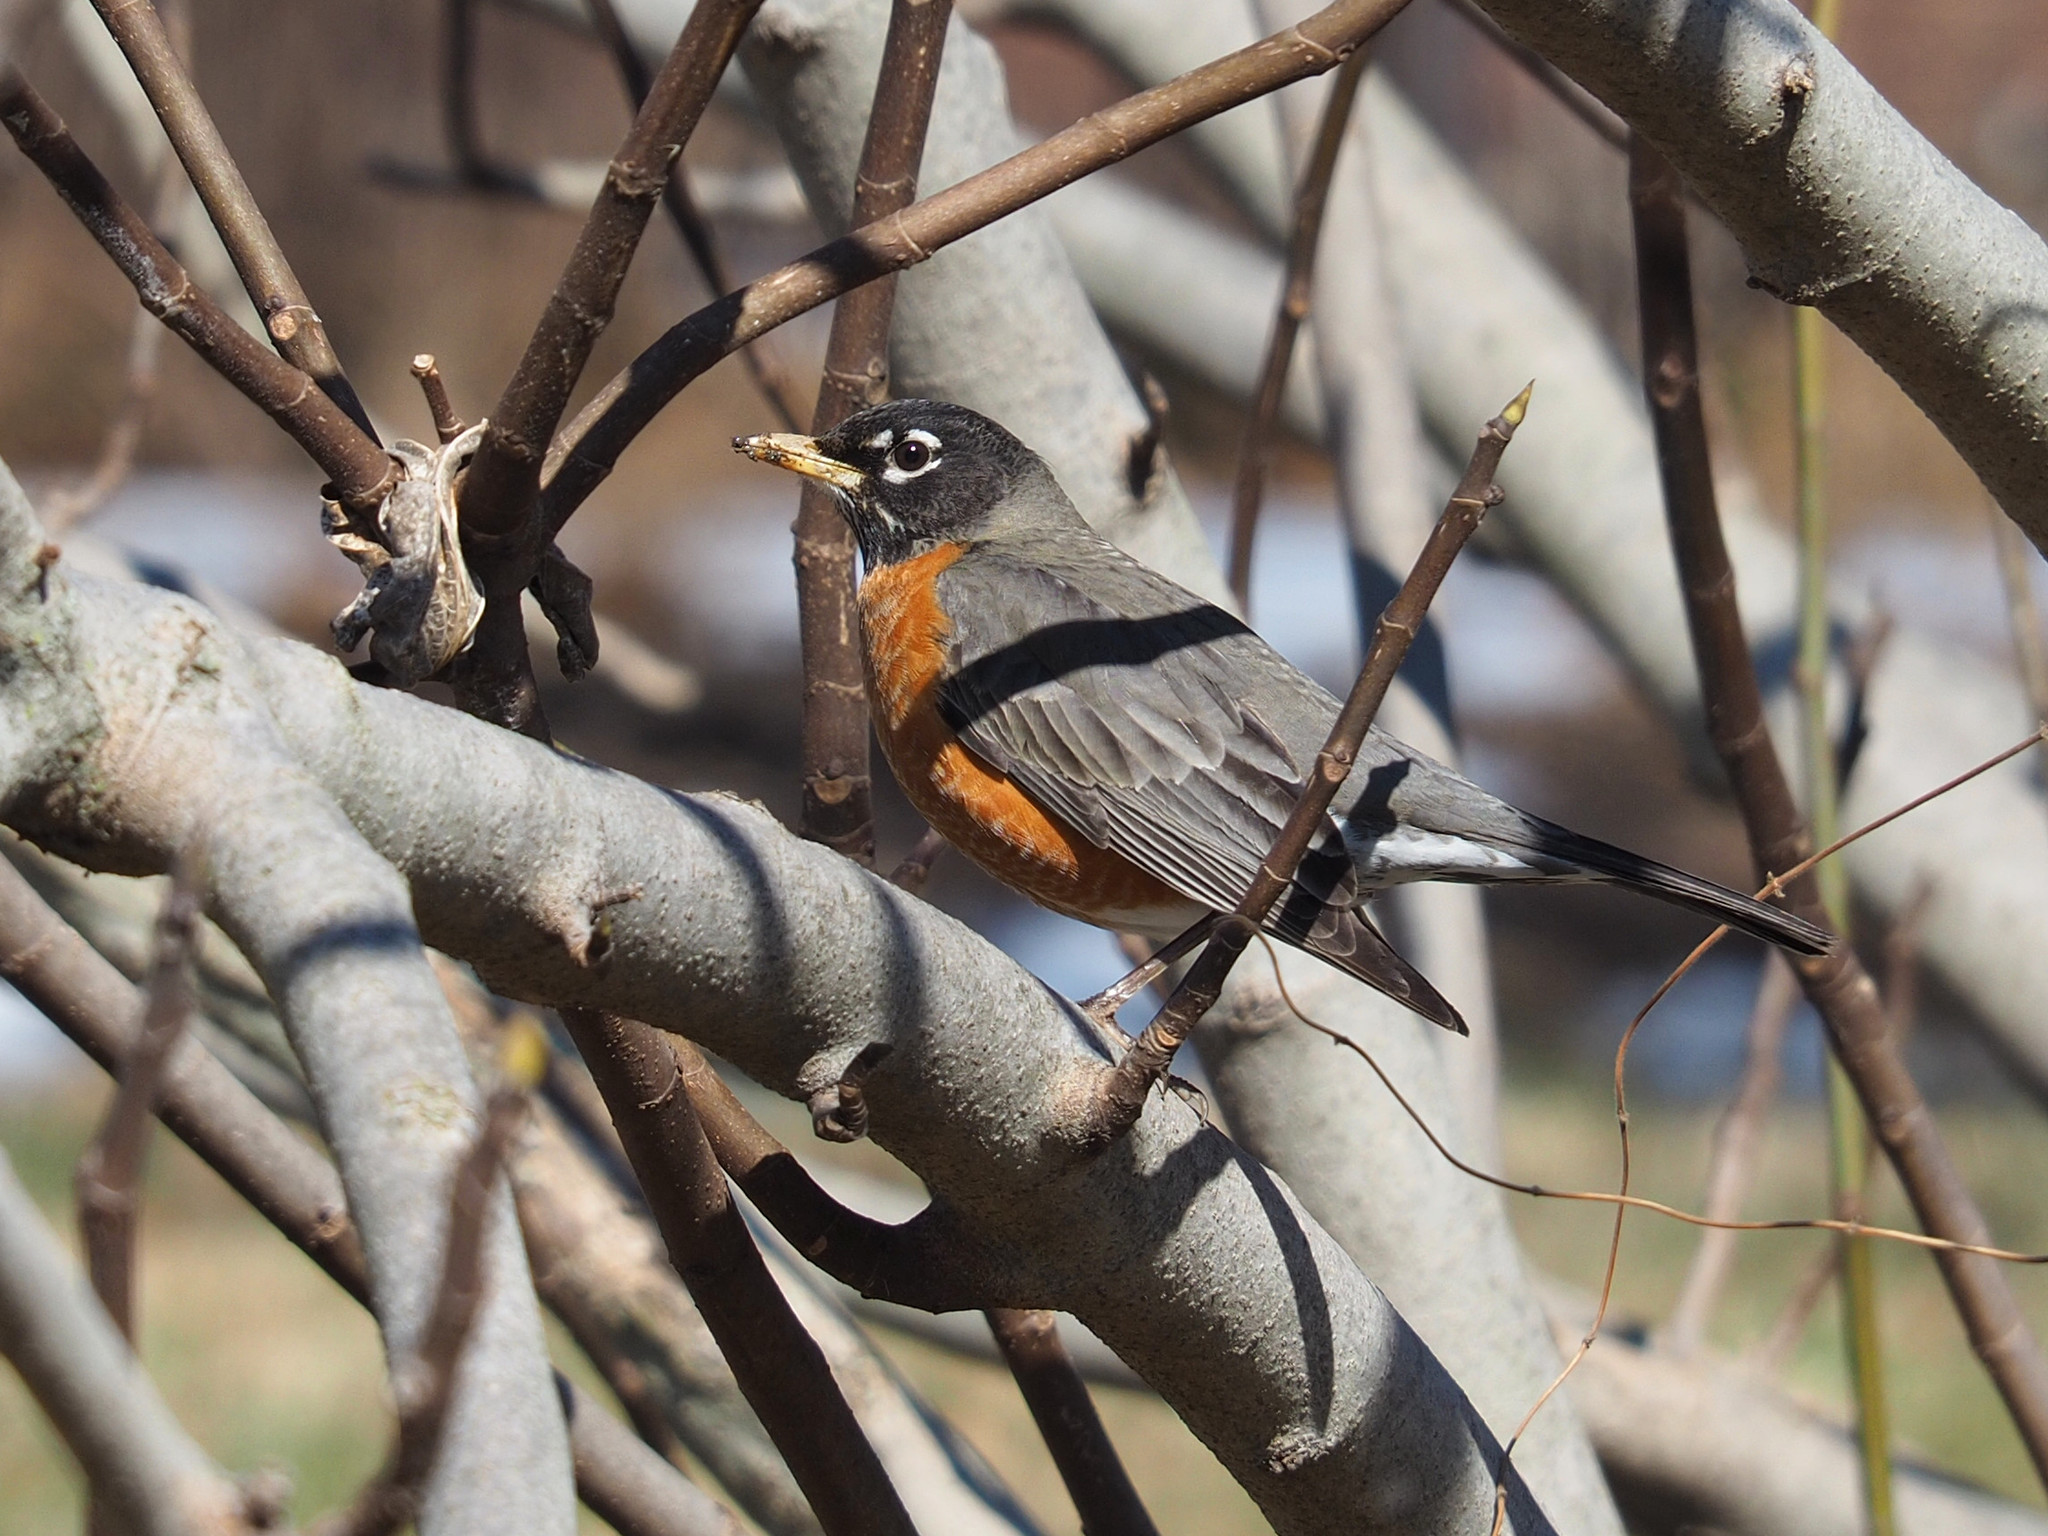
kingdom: Animalia
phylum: Chordata
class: Aves
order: Passeriformes
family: Turdidae
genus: Turdus
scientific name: Turdus migratorius
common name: American robin
